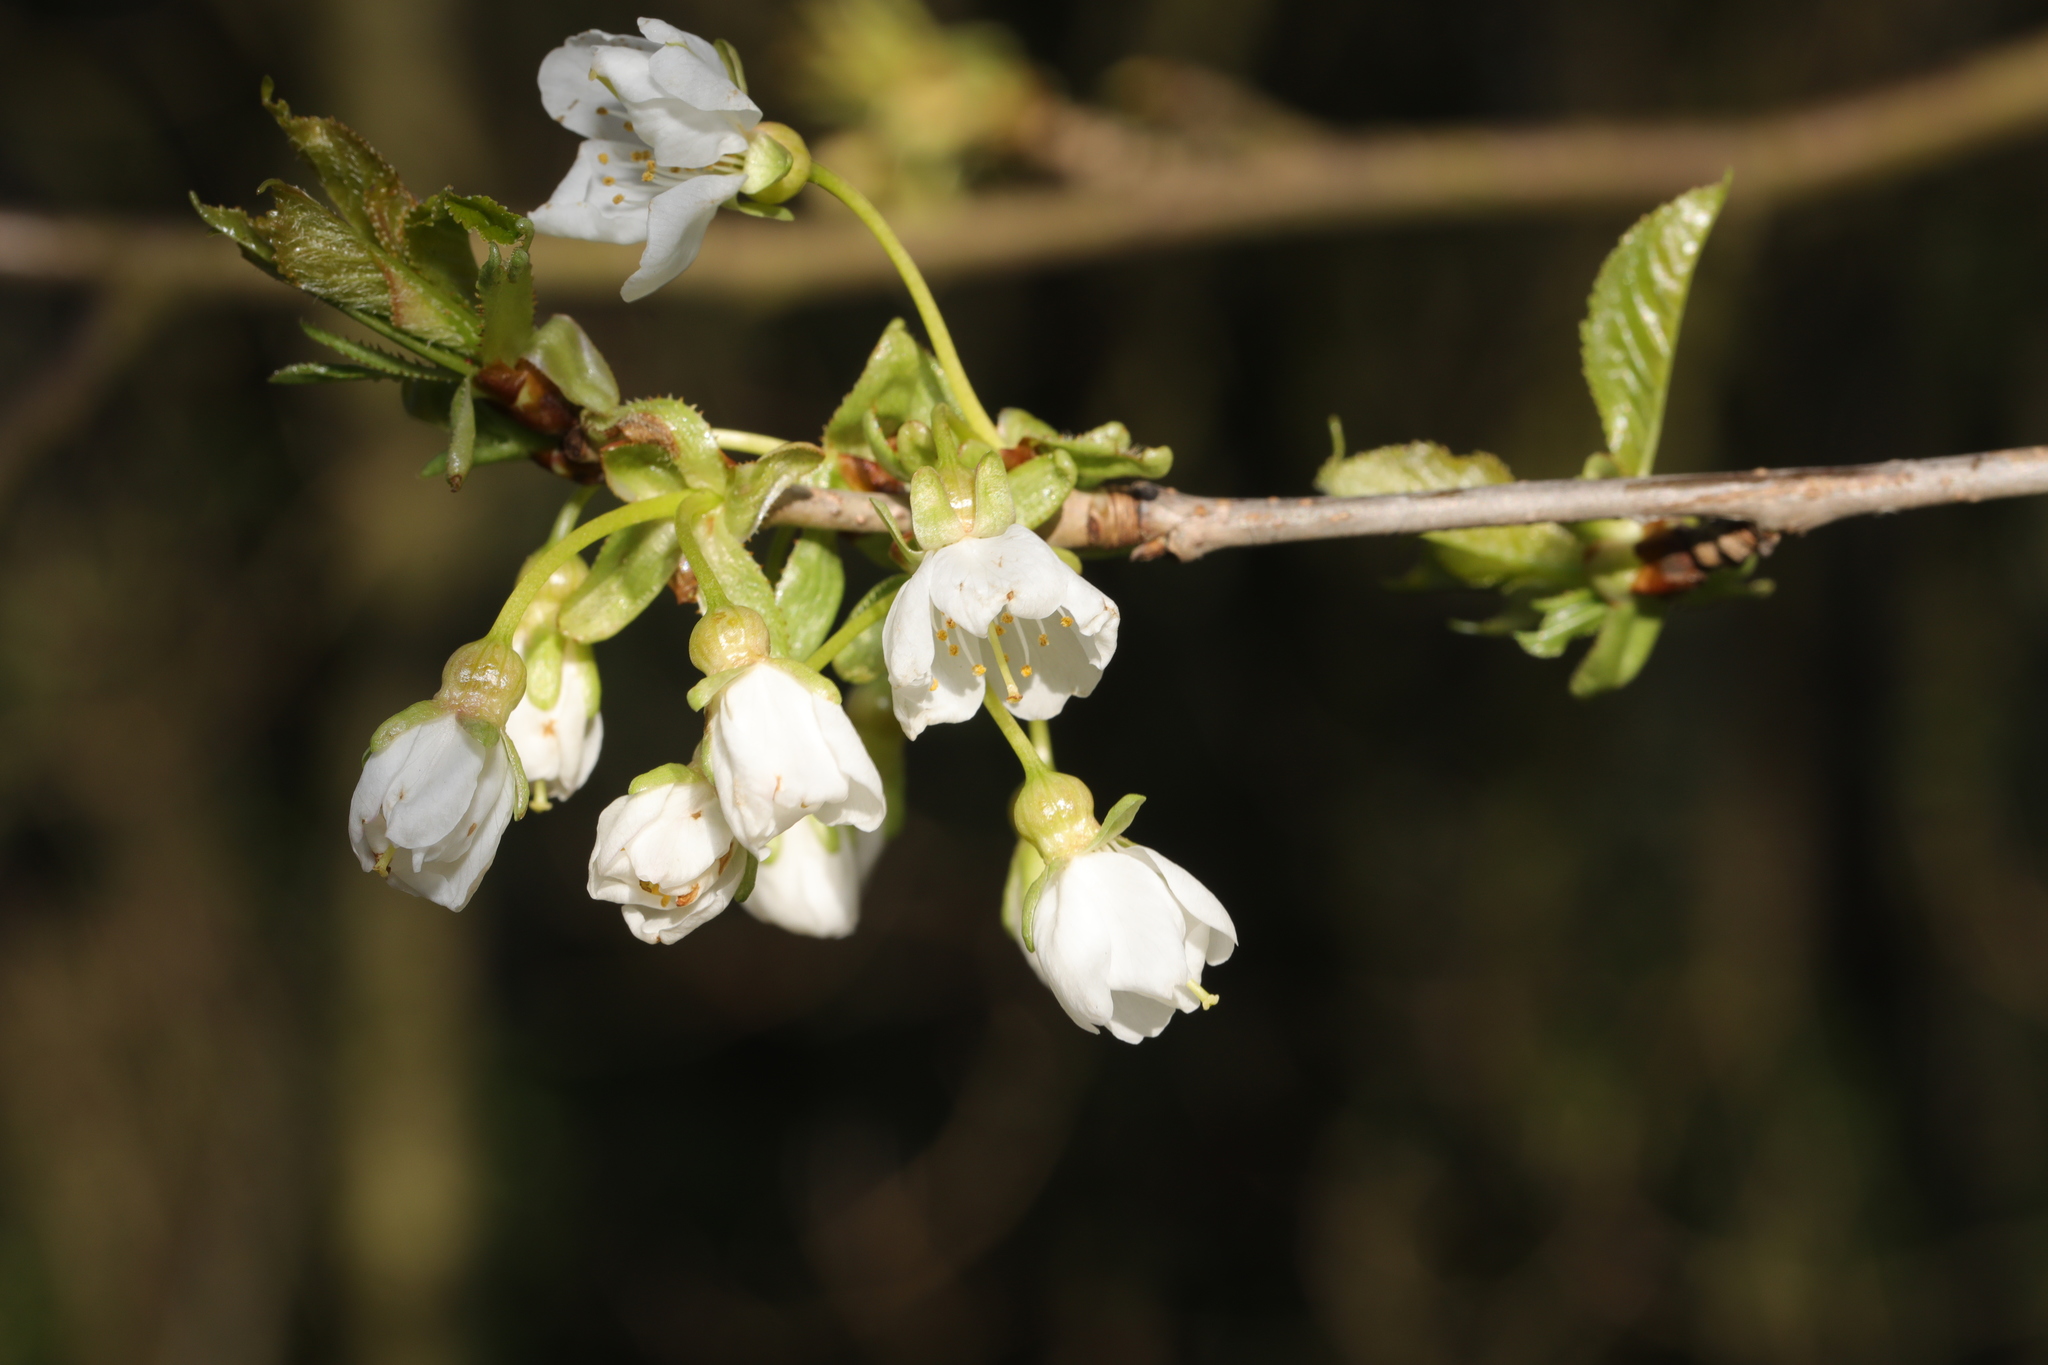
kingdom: Plantae
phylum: Tracheophyta
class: Magnoliopsida
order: Rosales
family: Rosaceae
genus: Prunus
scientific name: Prunus avium
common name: Sweet cherry
